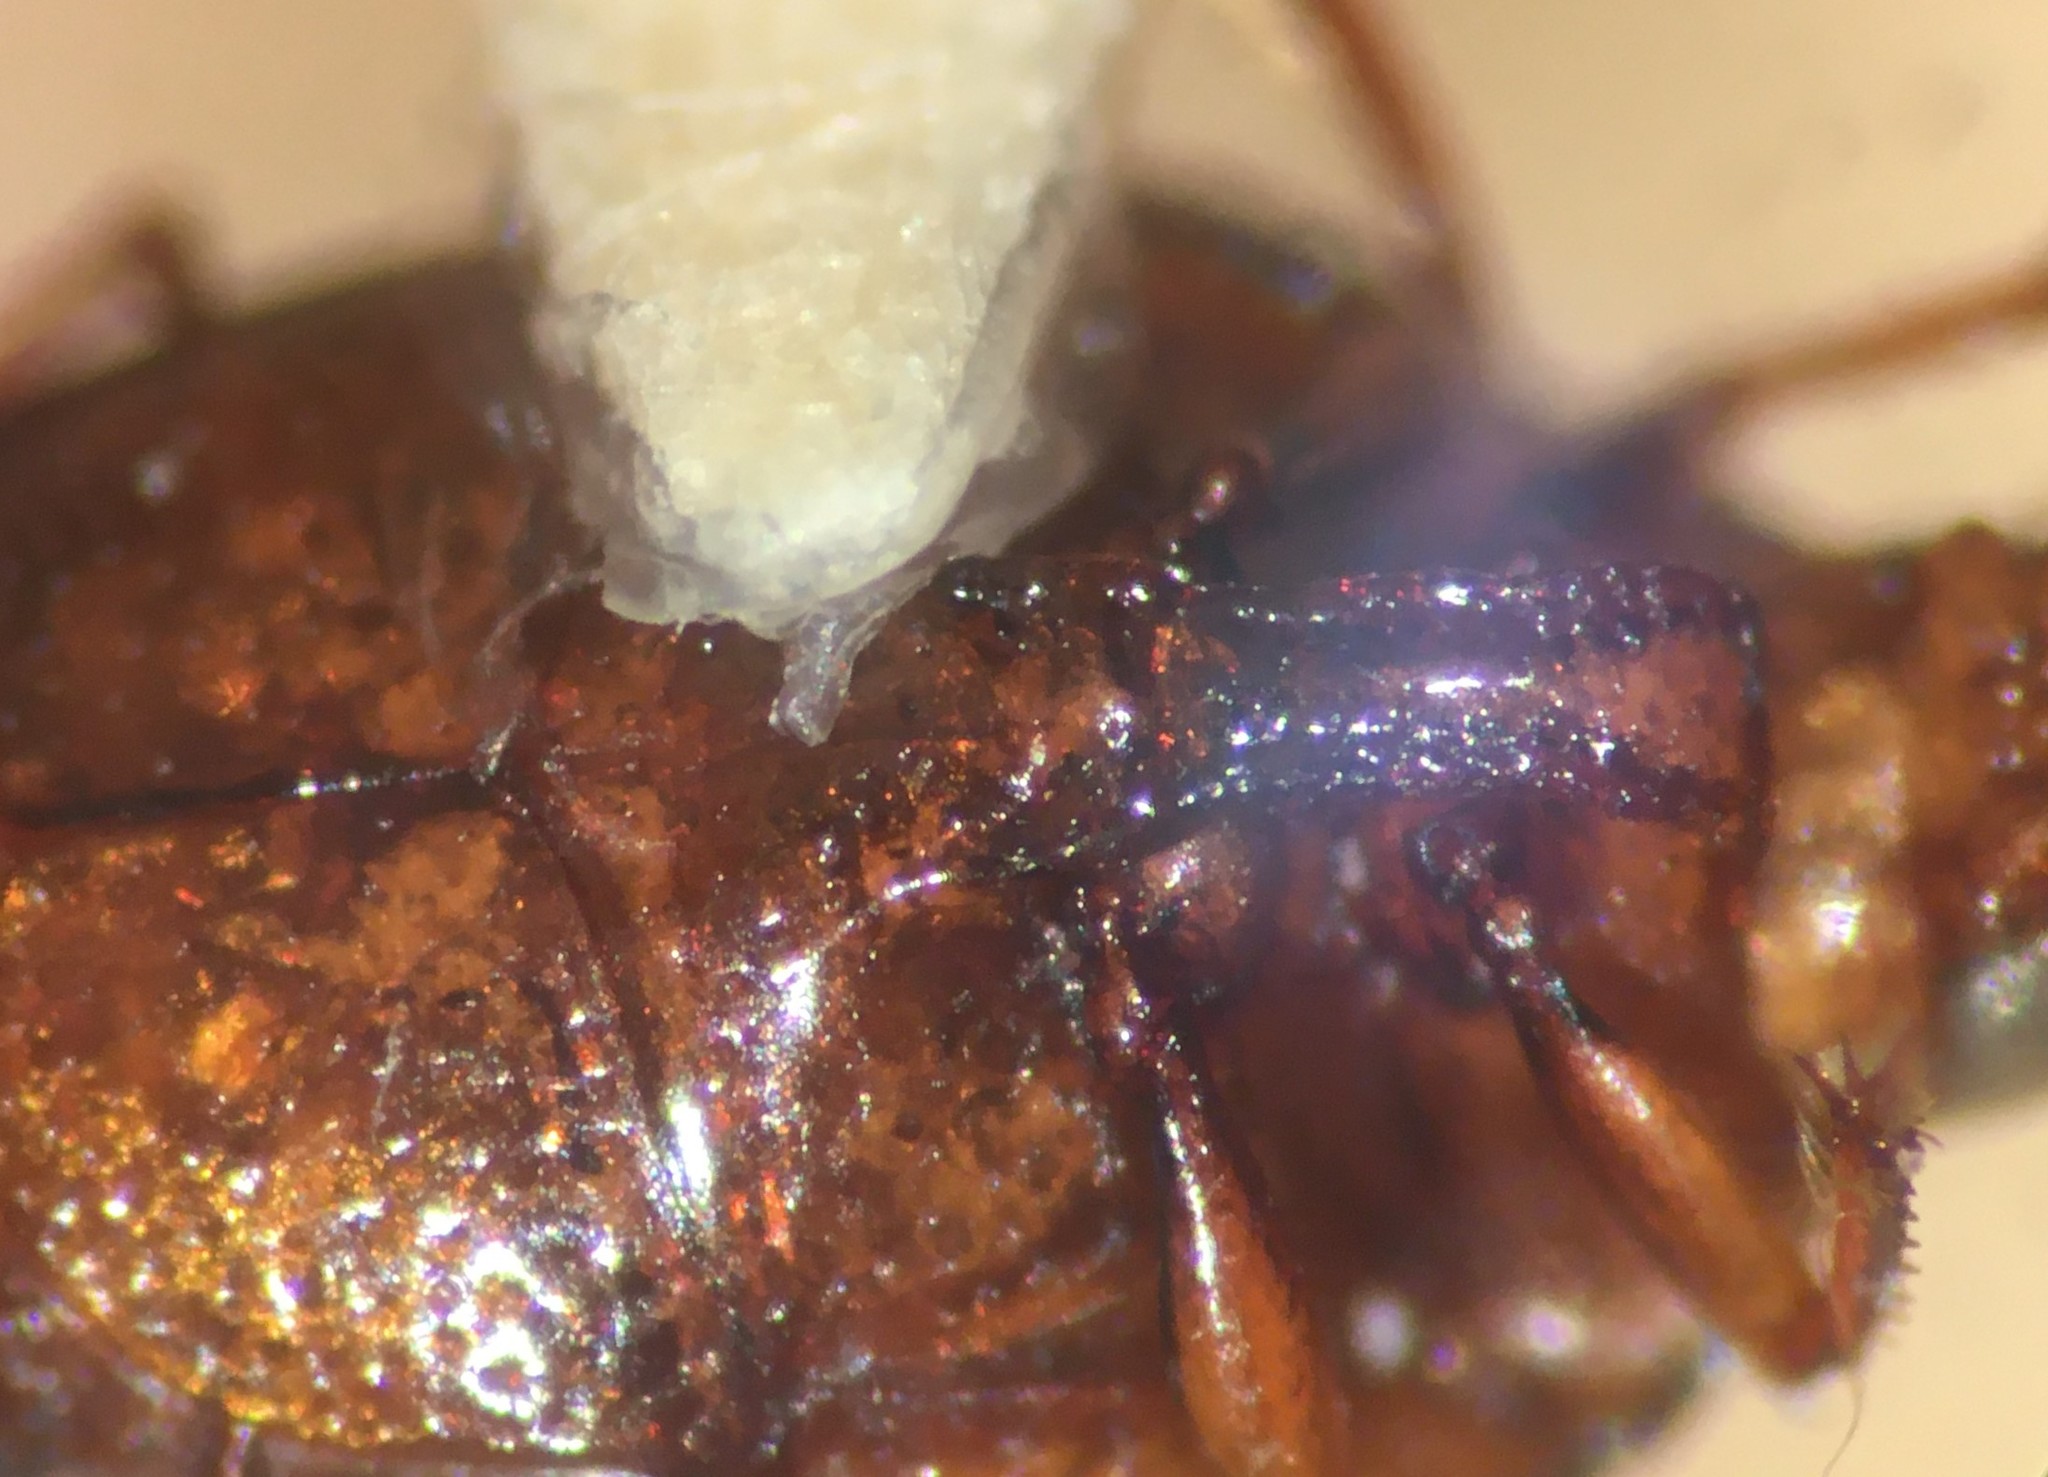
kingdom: Animalia
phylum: Arthropoda
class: Insecta
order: Coleoptera
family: Haliplidae
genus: Haliplus
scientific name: Haliplus havaniensis
